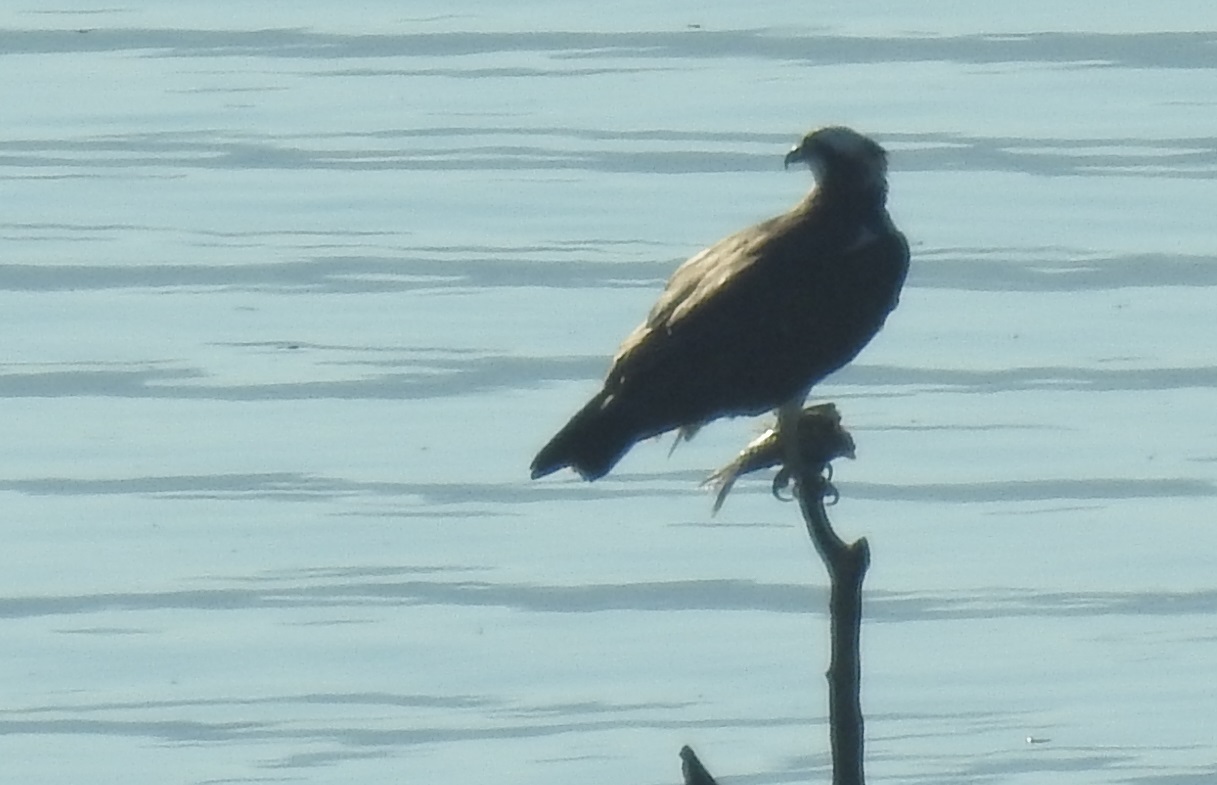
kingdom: Animalia
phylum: Chordata
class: Aves
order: Accipitriformes
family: Pandionidae
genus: Pandion
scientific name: Pandion haliaetus
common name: Osprey
